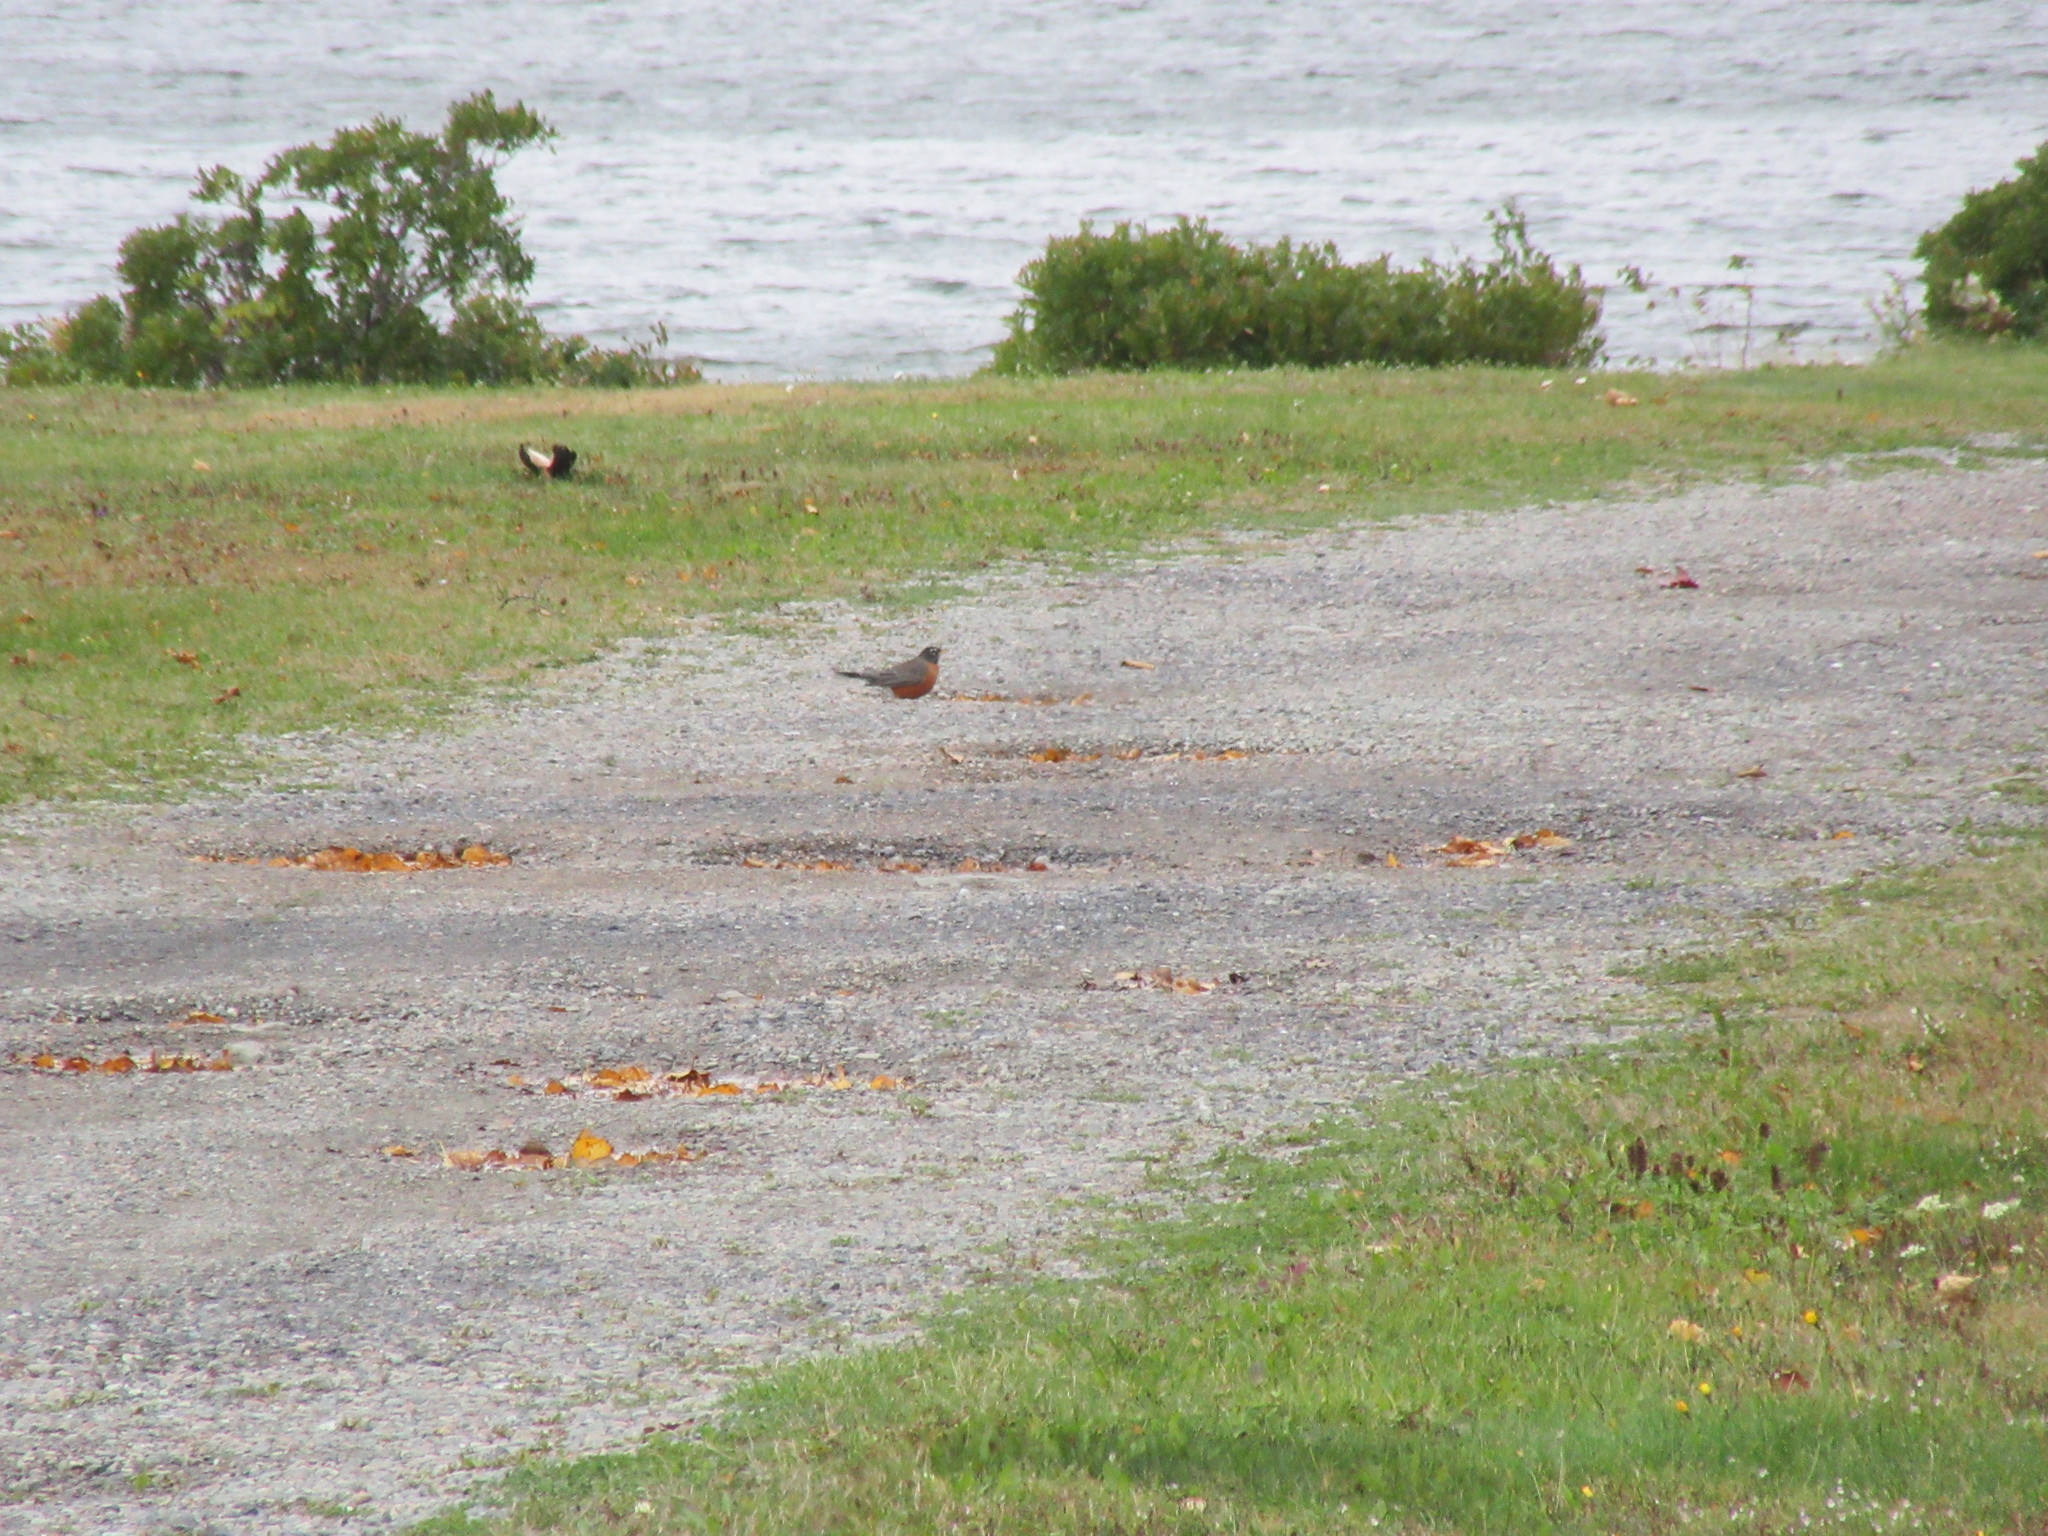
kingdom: Animalia
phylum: Chordata
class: Aves
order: Passeriformes
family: Turdidae
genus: Turdus
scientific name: Turdus migratorius
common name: American robin
